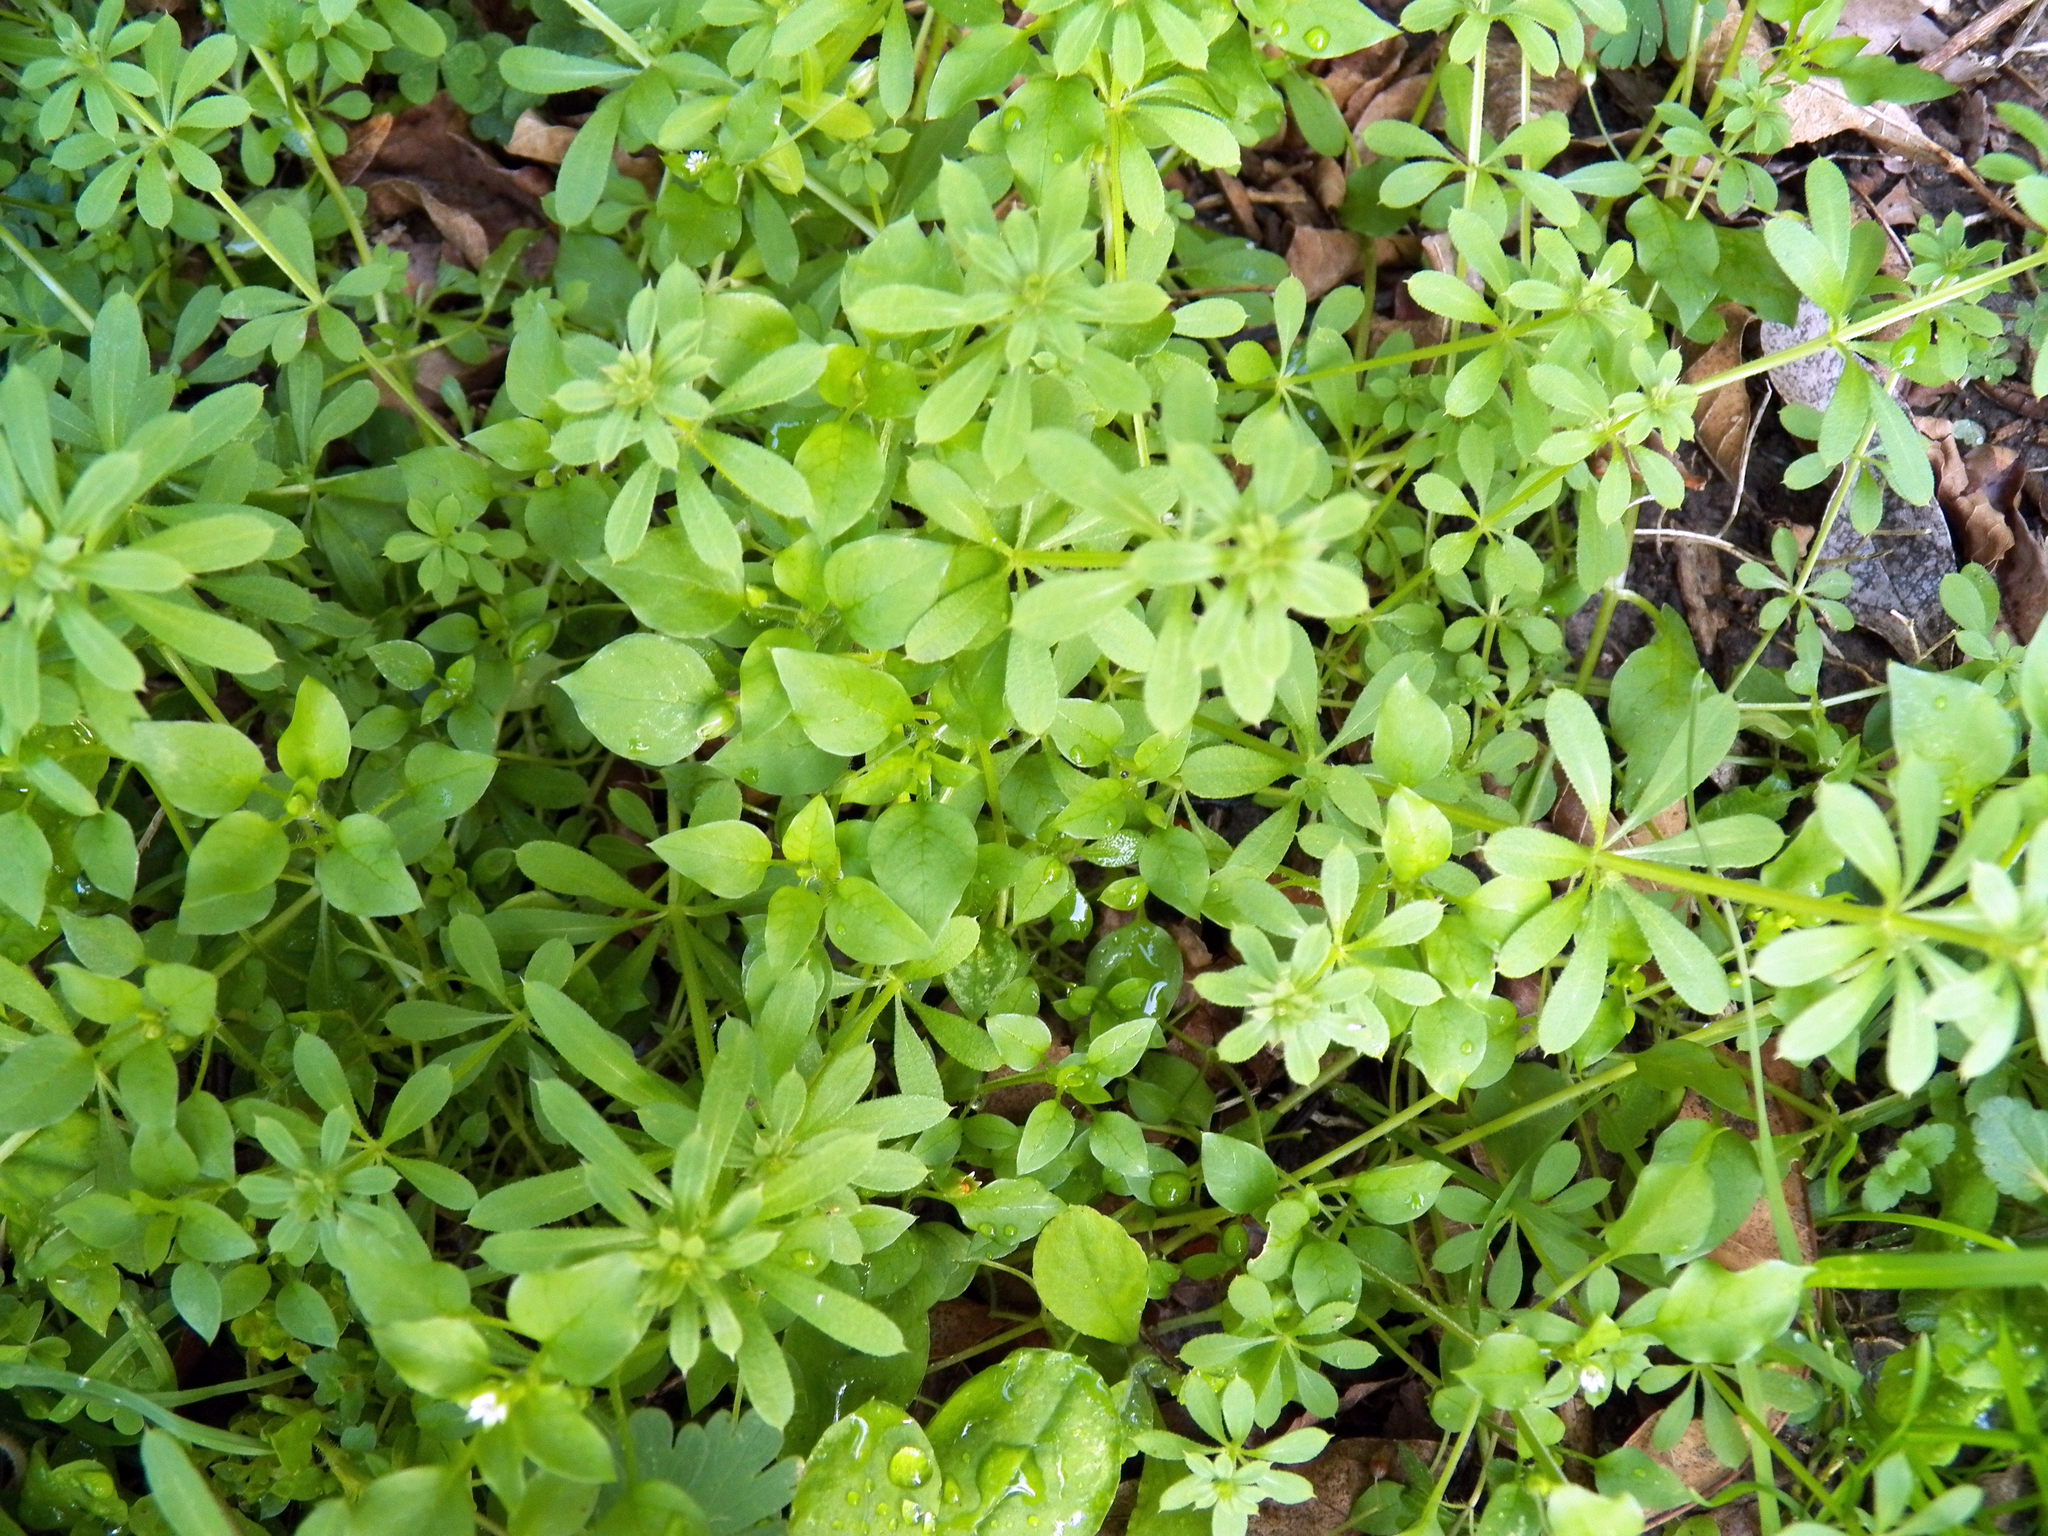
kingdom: Plantae
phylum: Tracheophyta
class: Magnoliopsida
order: Gentianales
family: Rubiaceae
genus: Galium
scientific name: Galium aparine
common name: Cleavers
